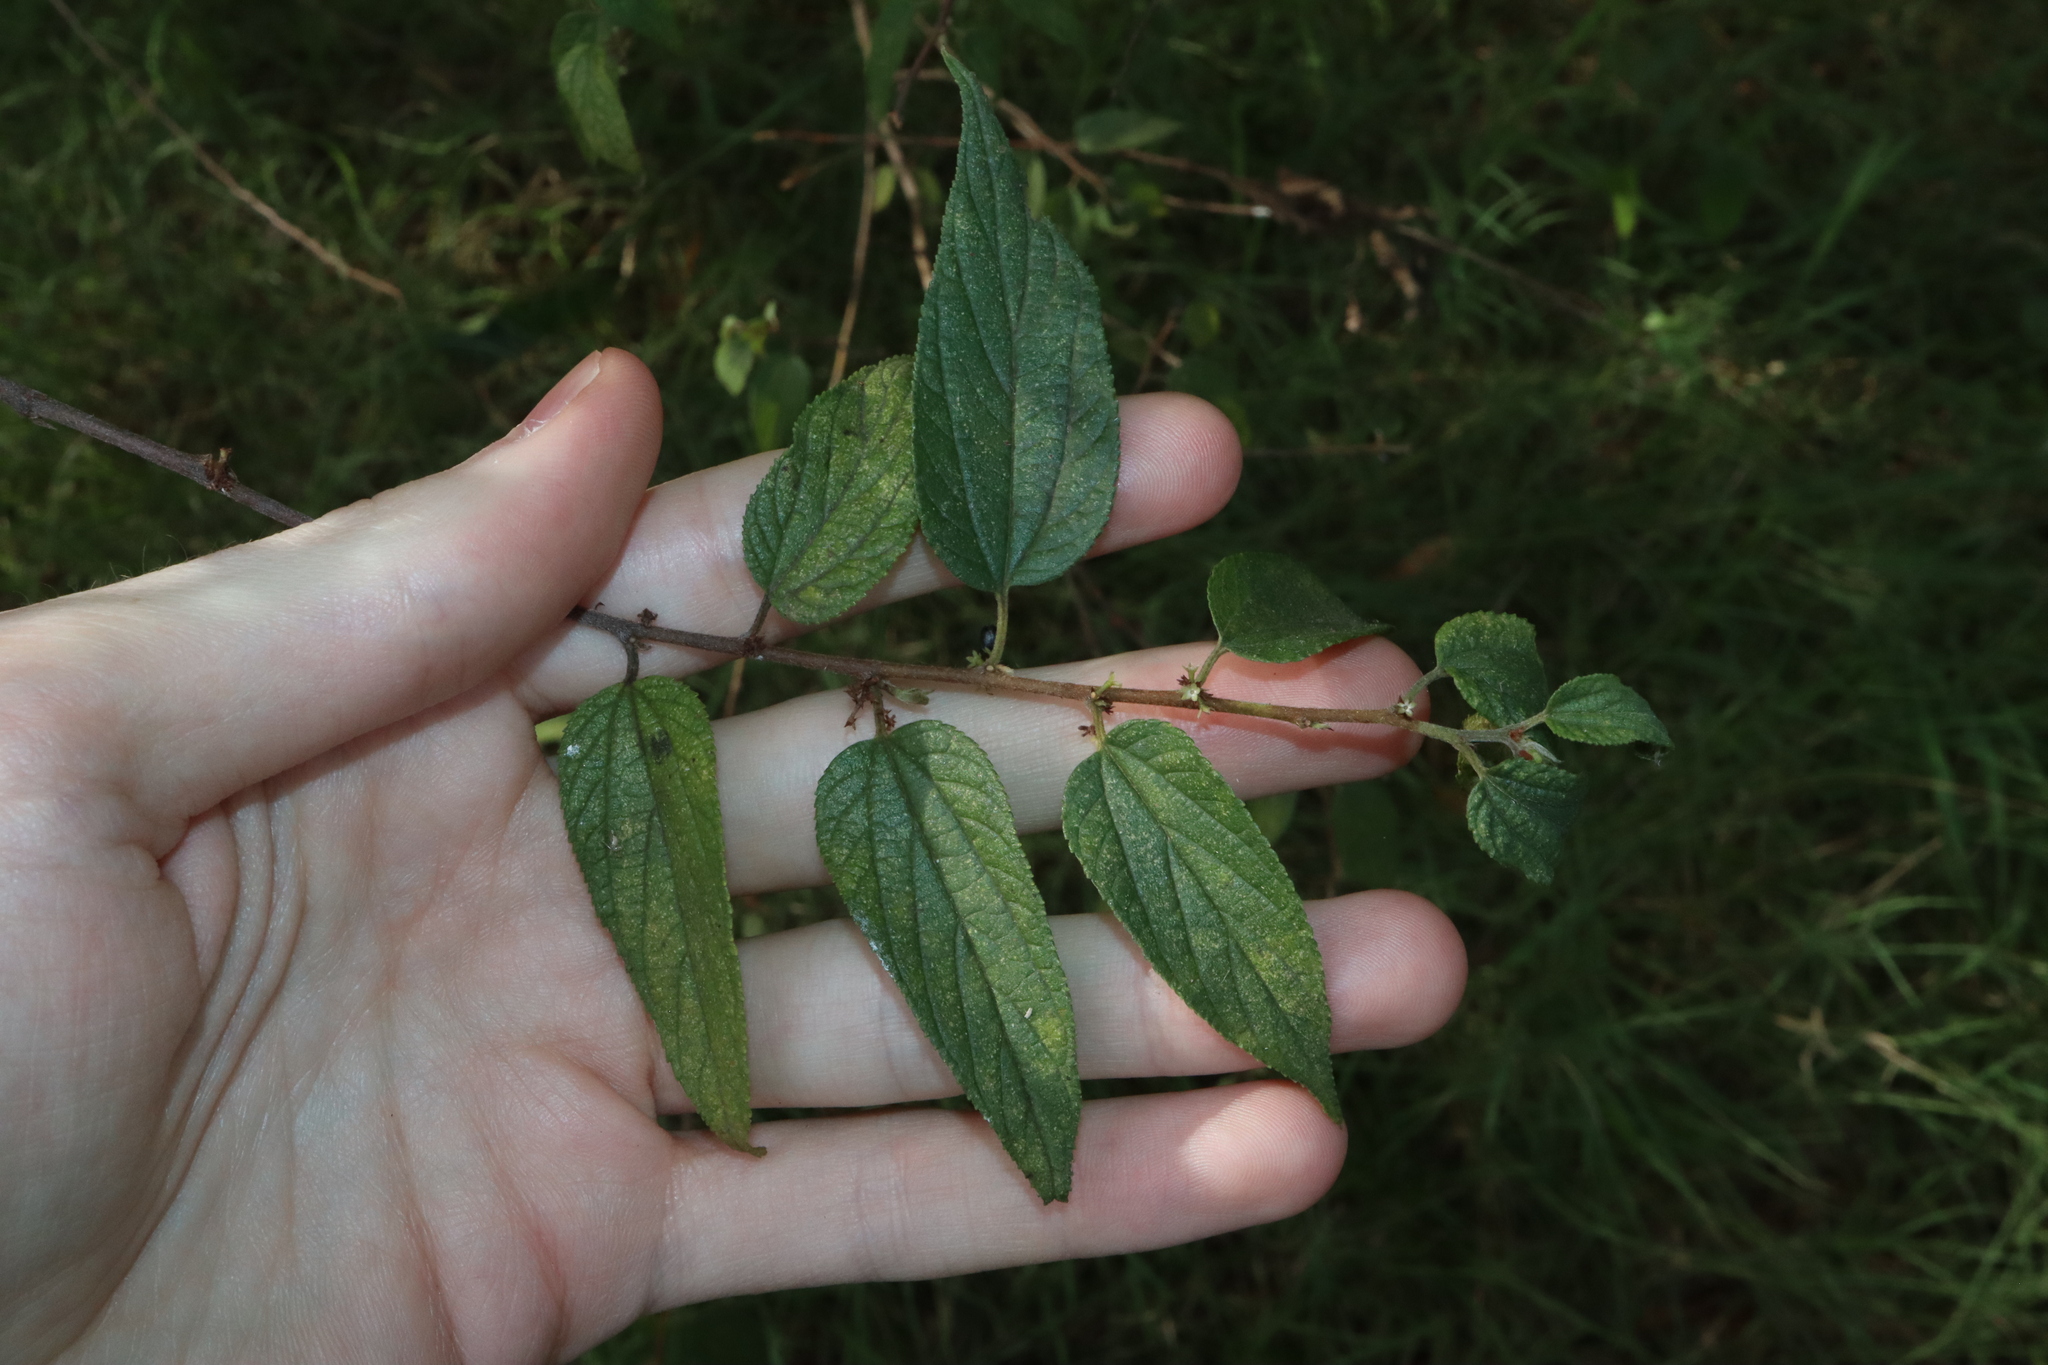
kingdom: Plantae
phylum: Tracheophyta
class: Magnoliopsida
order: Rosales
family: Cannabaceae
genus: Trema
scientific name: Trema tomentosum
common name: Peach-leaf-poisonbush
